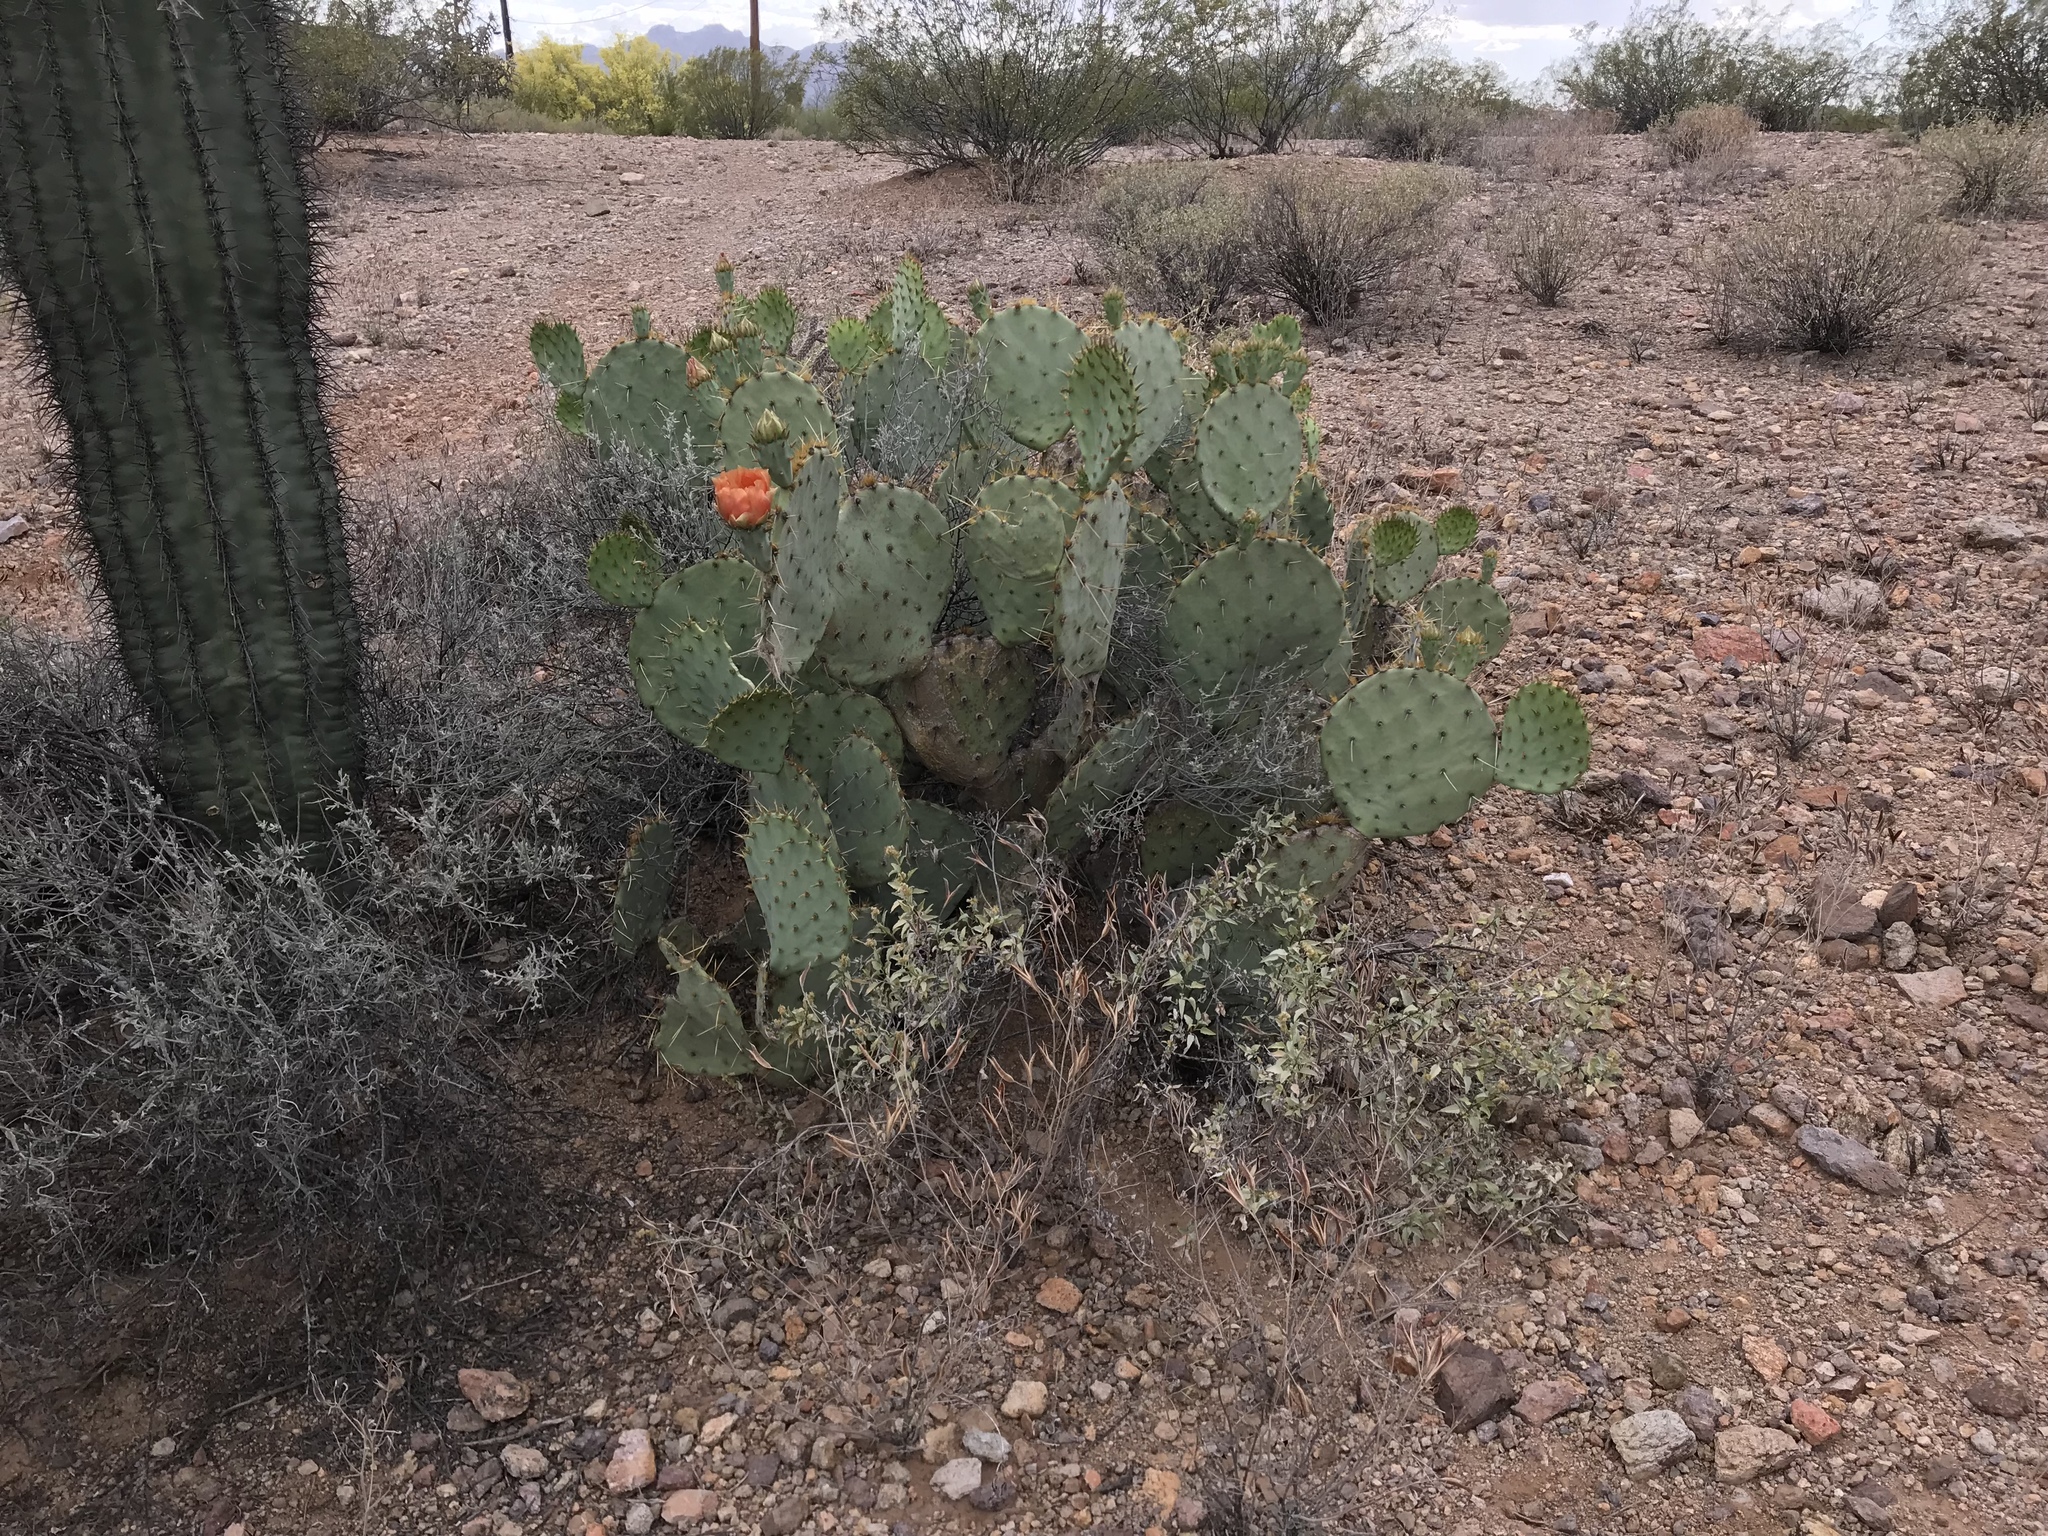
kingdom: Plantae
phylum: Tracheophyta
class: Magnoliopsida
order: Caryophyllales
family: Cactaceae
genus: Opuntia
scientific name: Opuntia orbiculata
